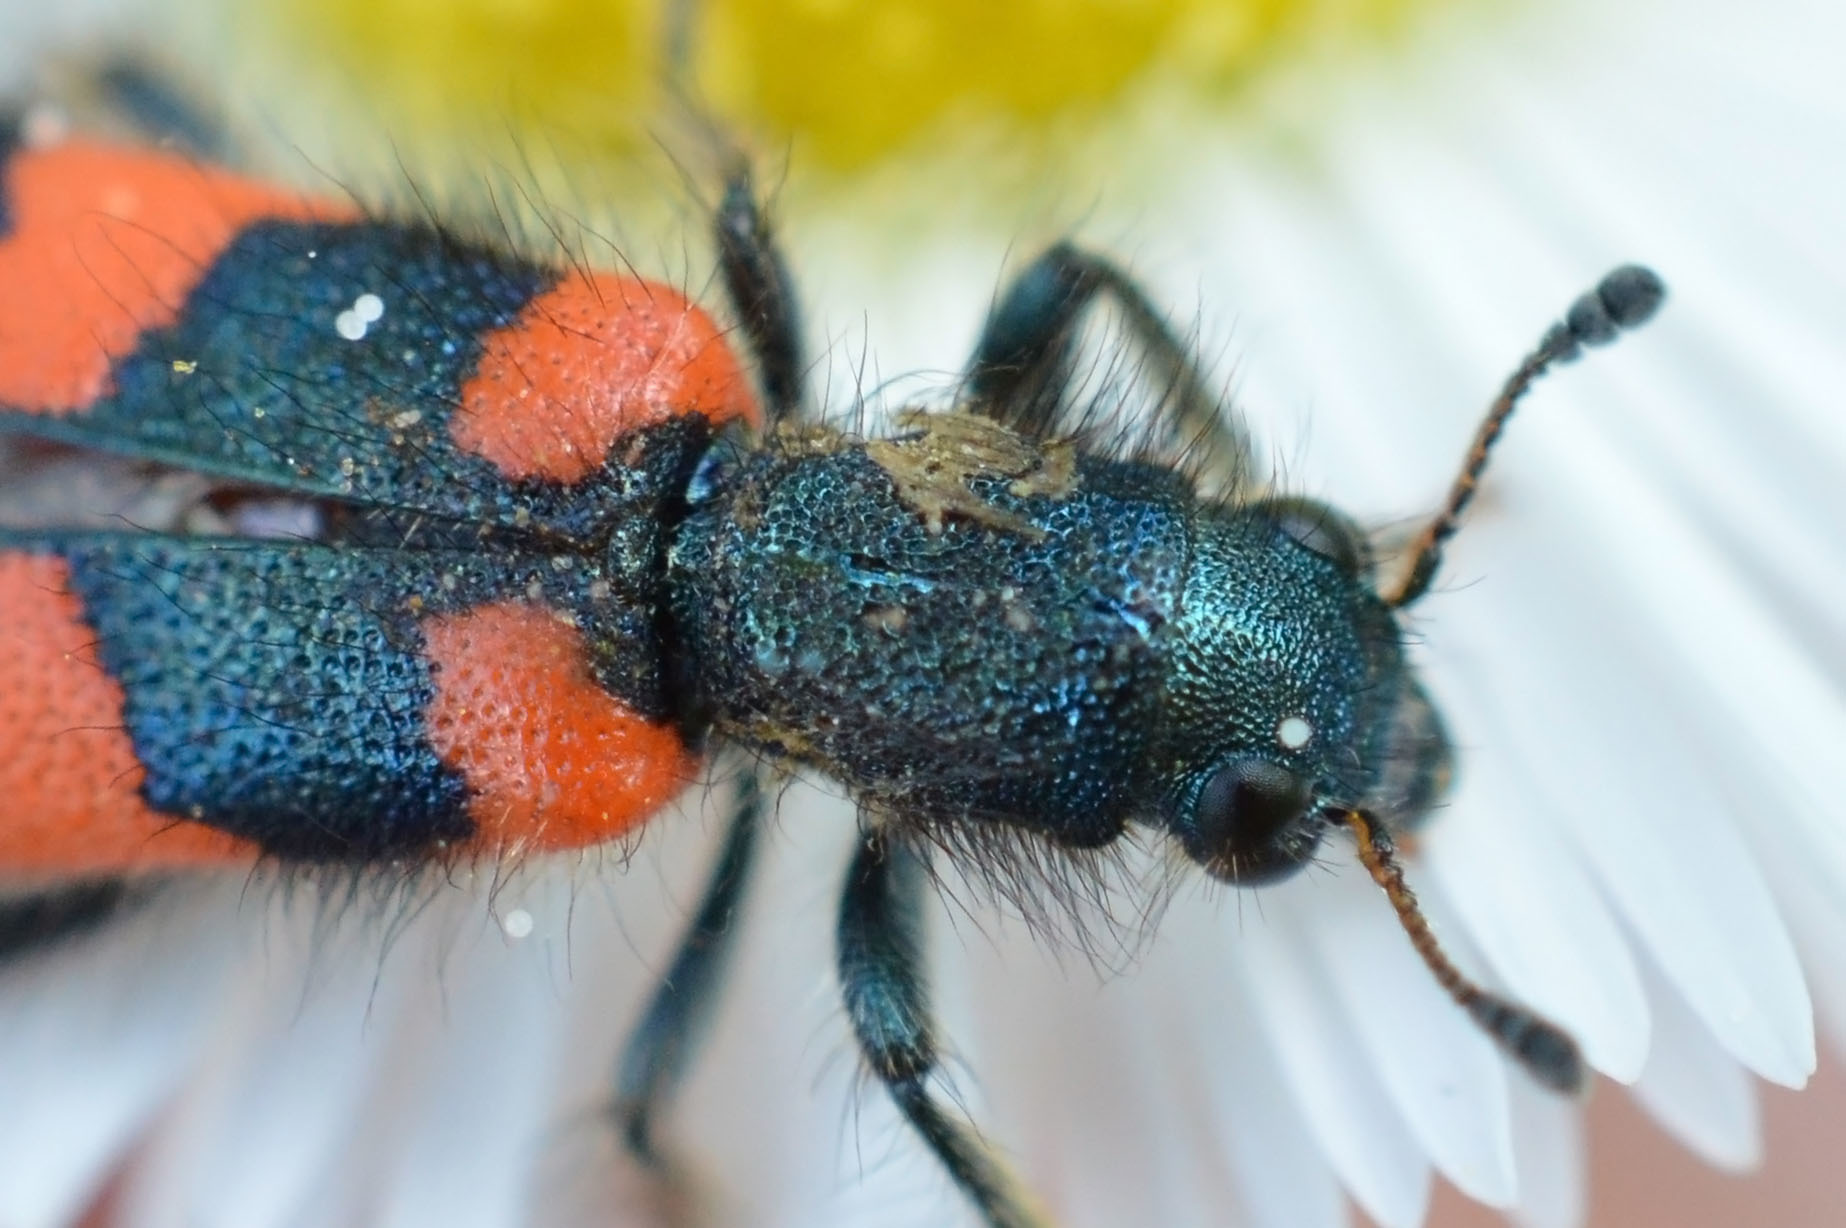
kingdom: Animalia
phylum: Arthropoda
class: Insecta
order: Coleoptera
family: Cleridae
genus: Trichodes
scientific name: Trichodes favarius
